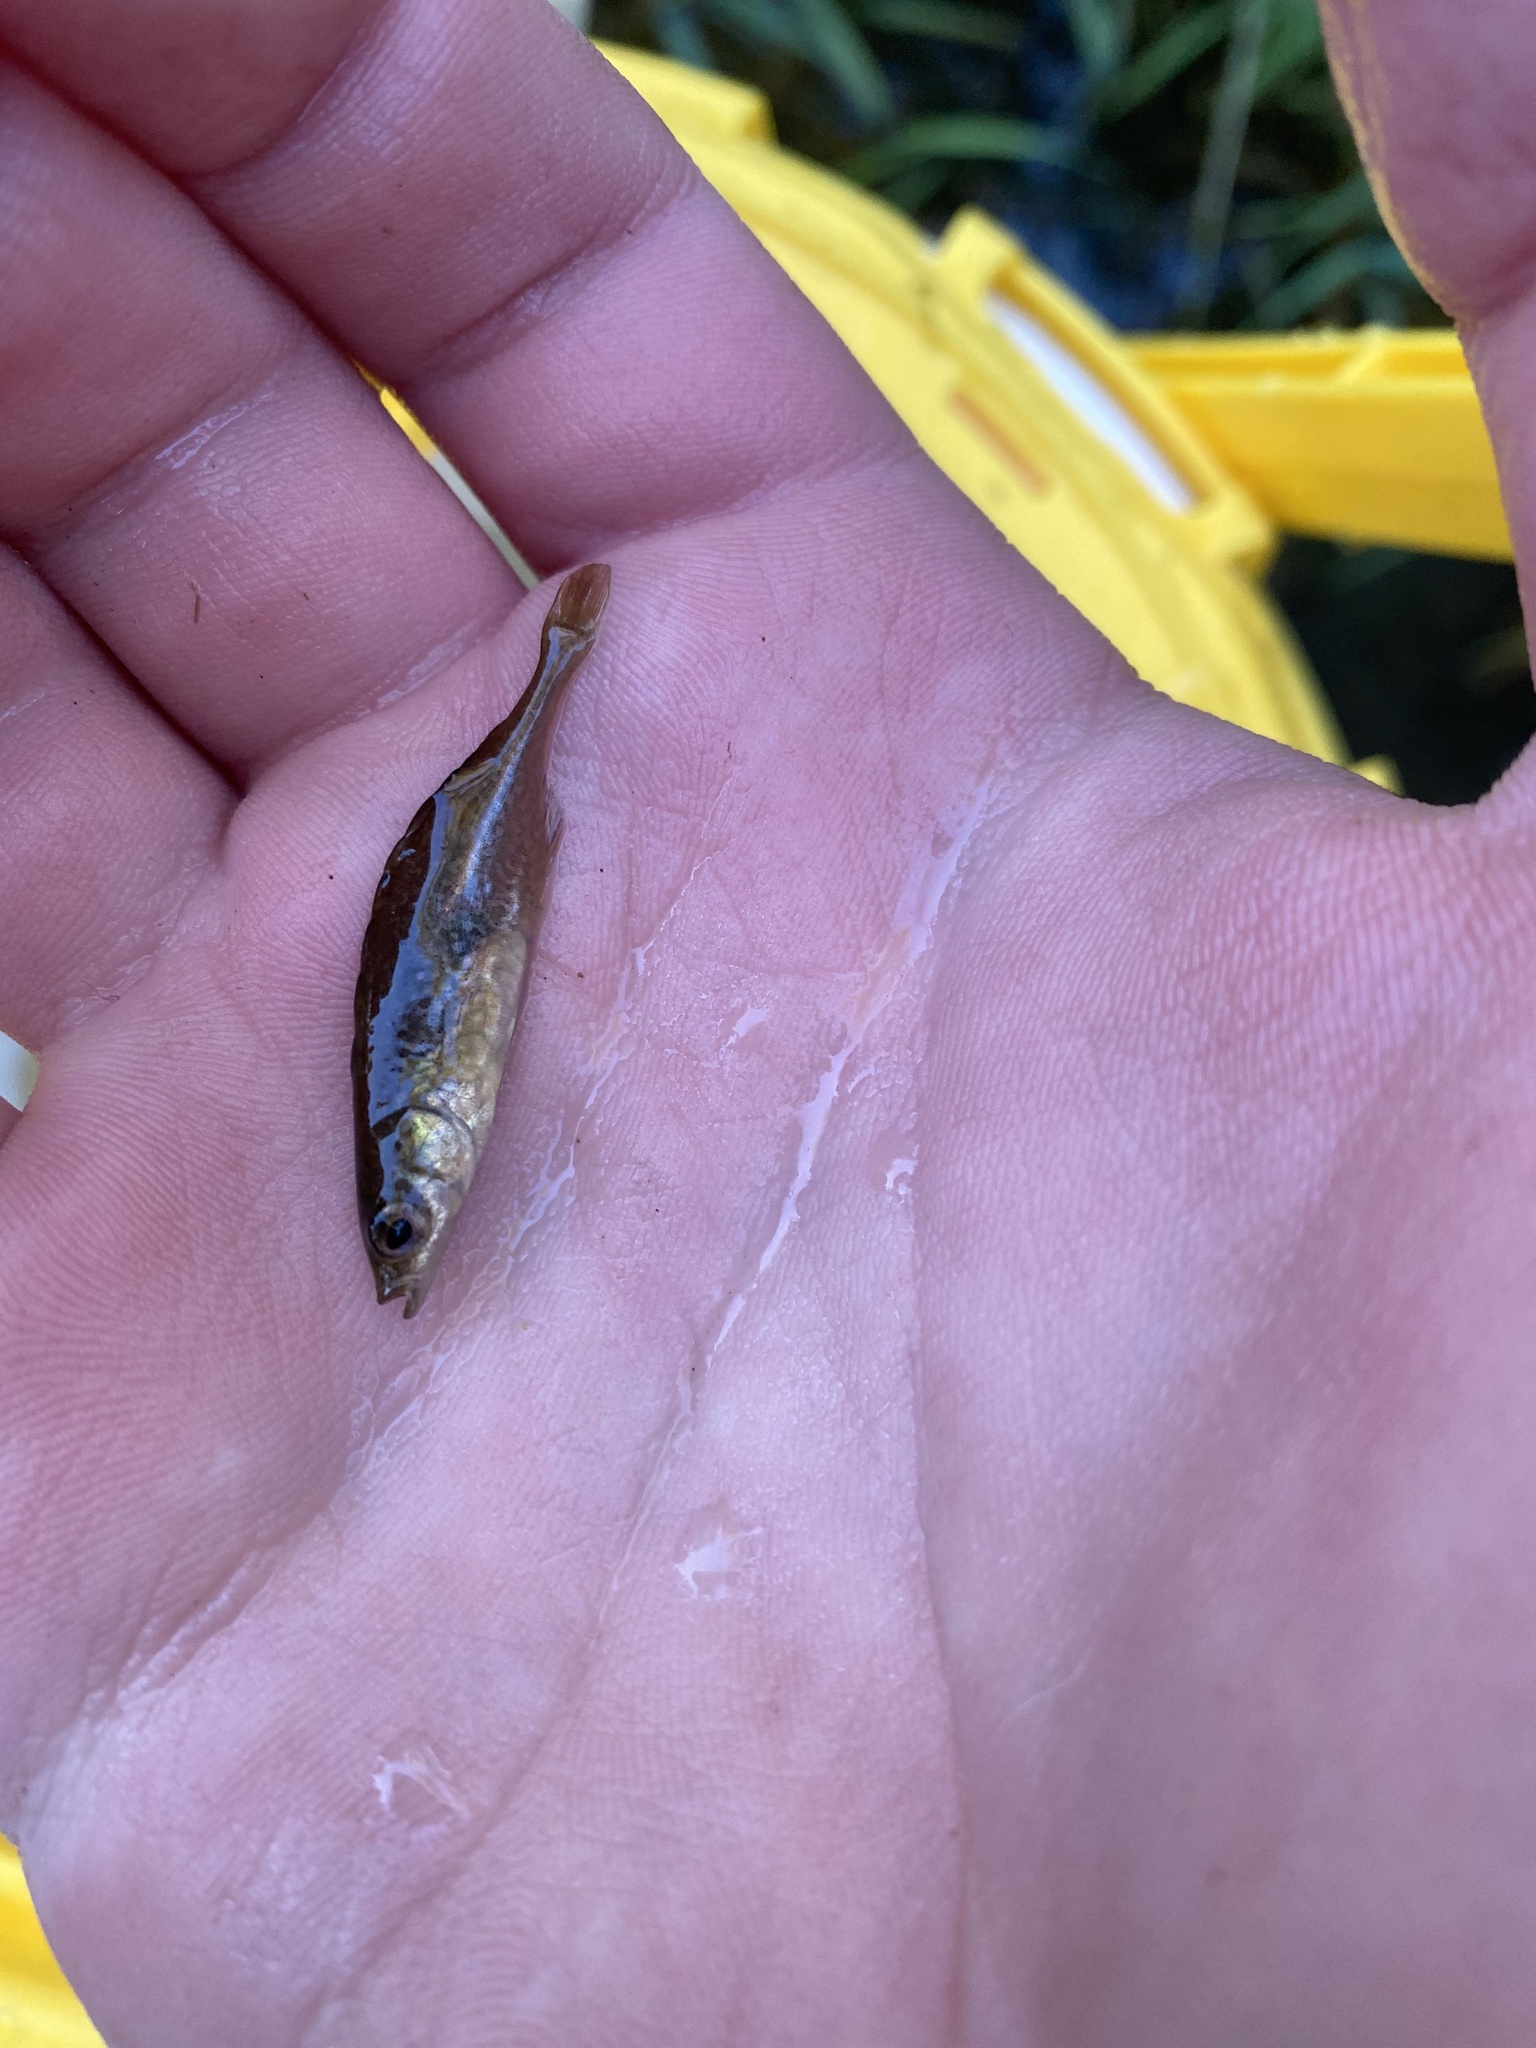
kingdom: Animalia
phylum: Chordata
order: Gasterosteiformes
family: Gasterosteidae
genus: Culaea
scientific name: Culaea inconstans
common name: Brook stickleback
